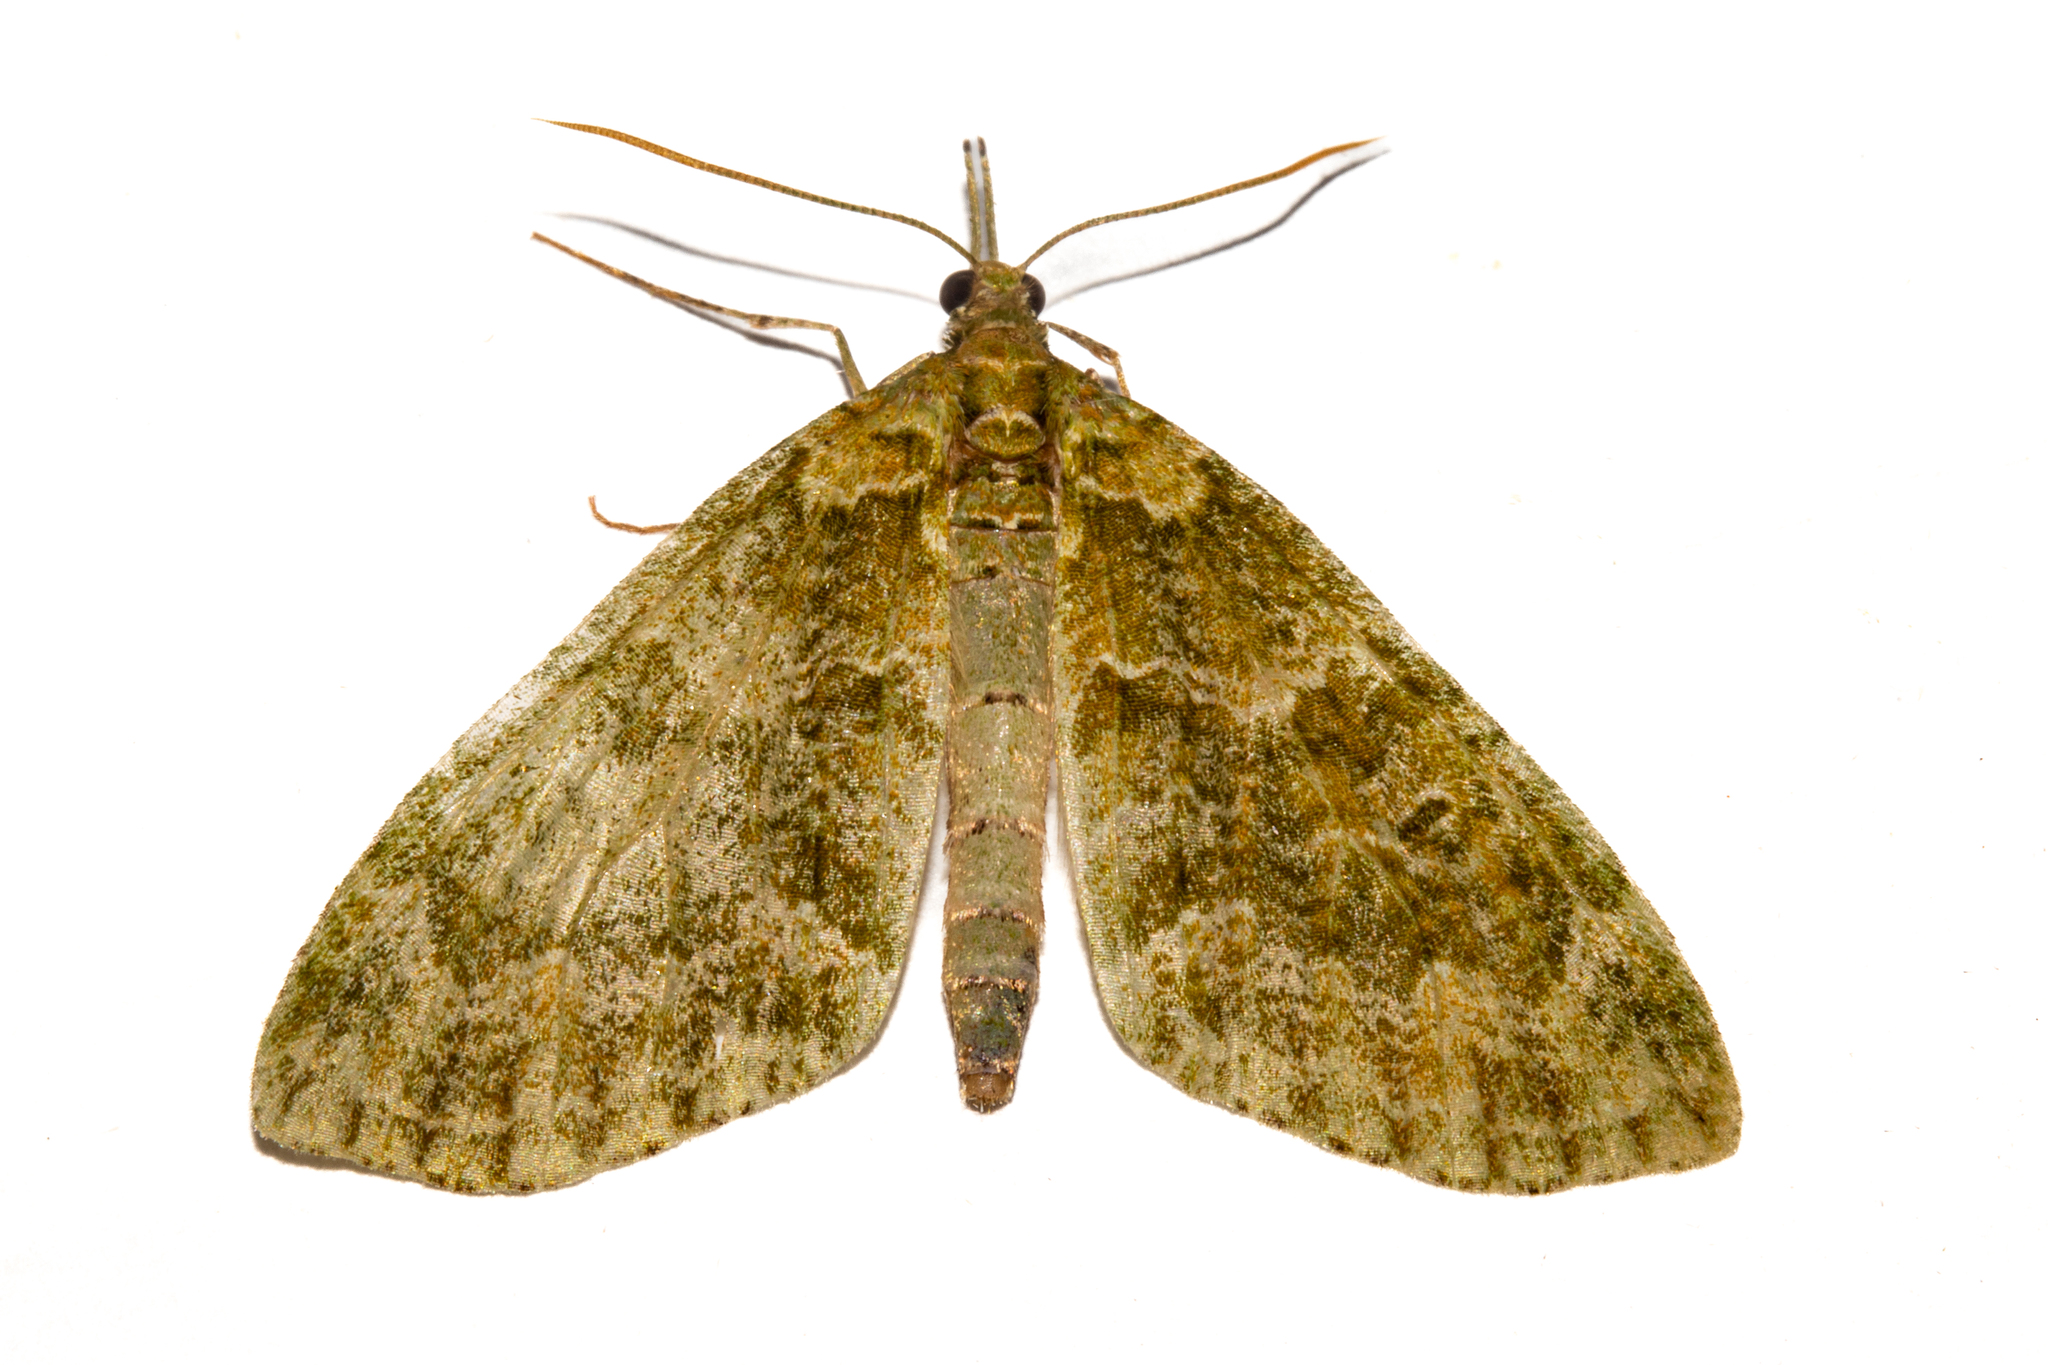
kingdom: Animalia
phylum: Arthropoda
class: Insecta
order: Lepidoptera
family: Geometridae
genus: Tatosoma
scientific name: Tatosoma tipulata
